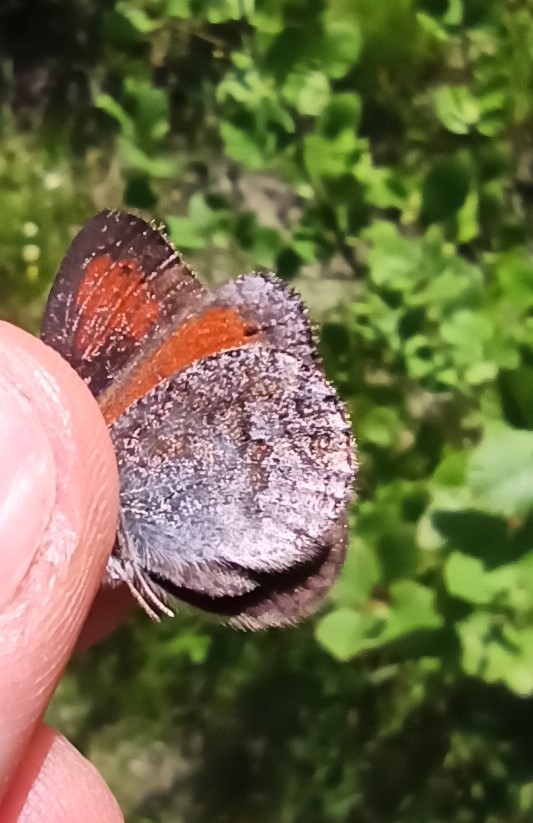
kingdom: Animalia
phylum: Arthropoda
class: Insecta
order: Lepidoptera
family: Nymphalidae
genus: Erebia
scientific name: Erebia tyndarus
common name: Swiss brassy ringlet
